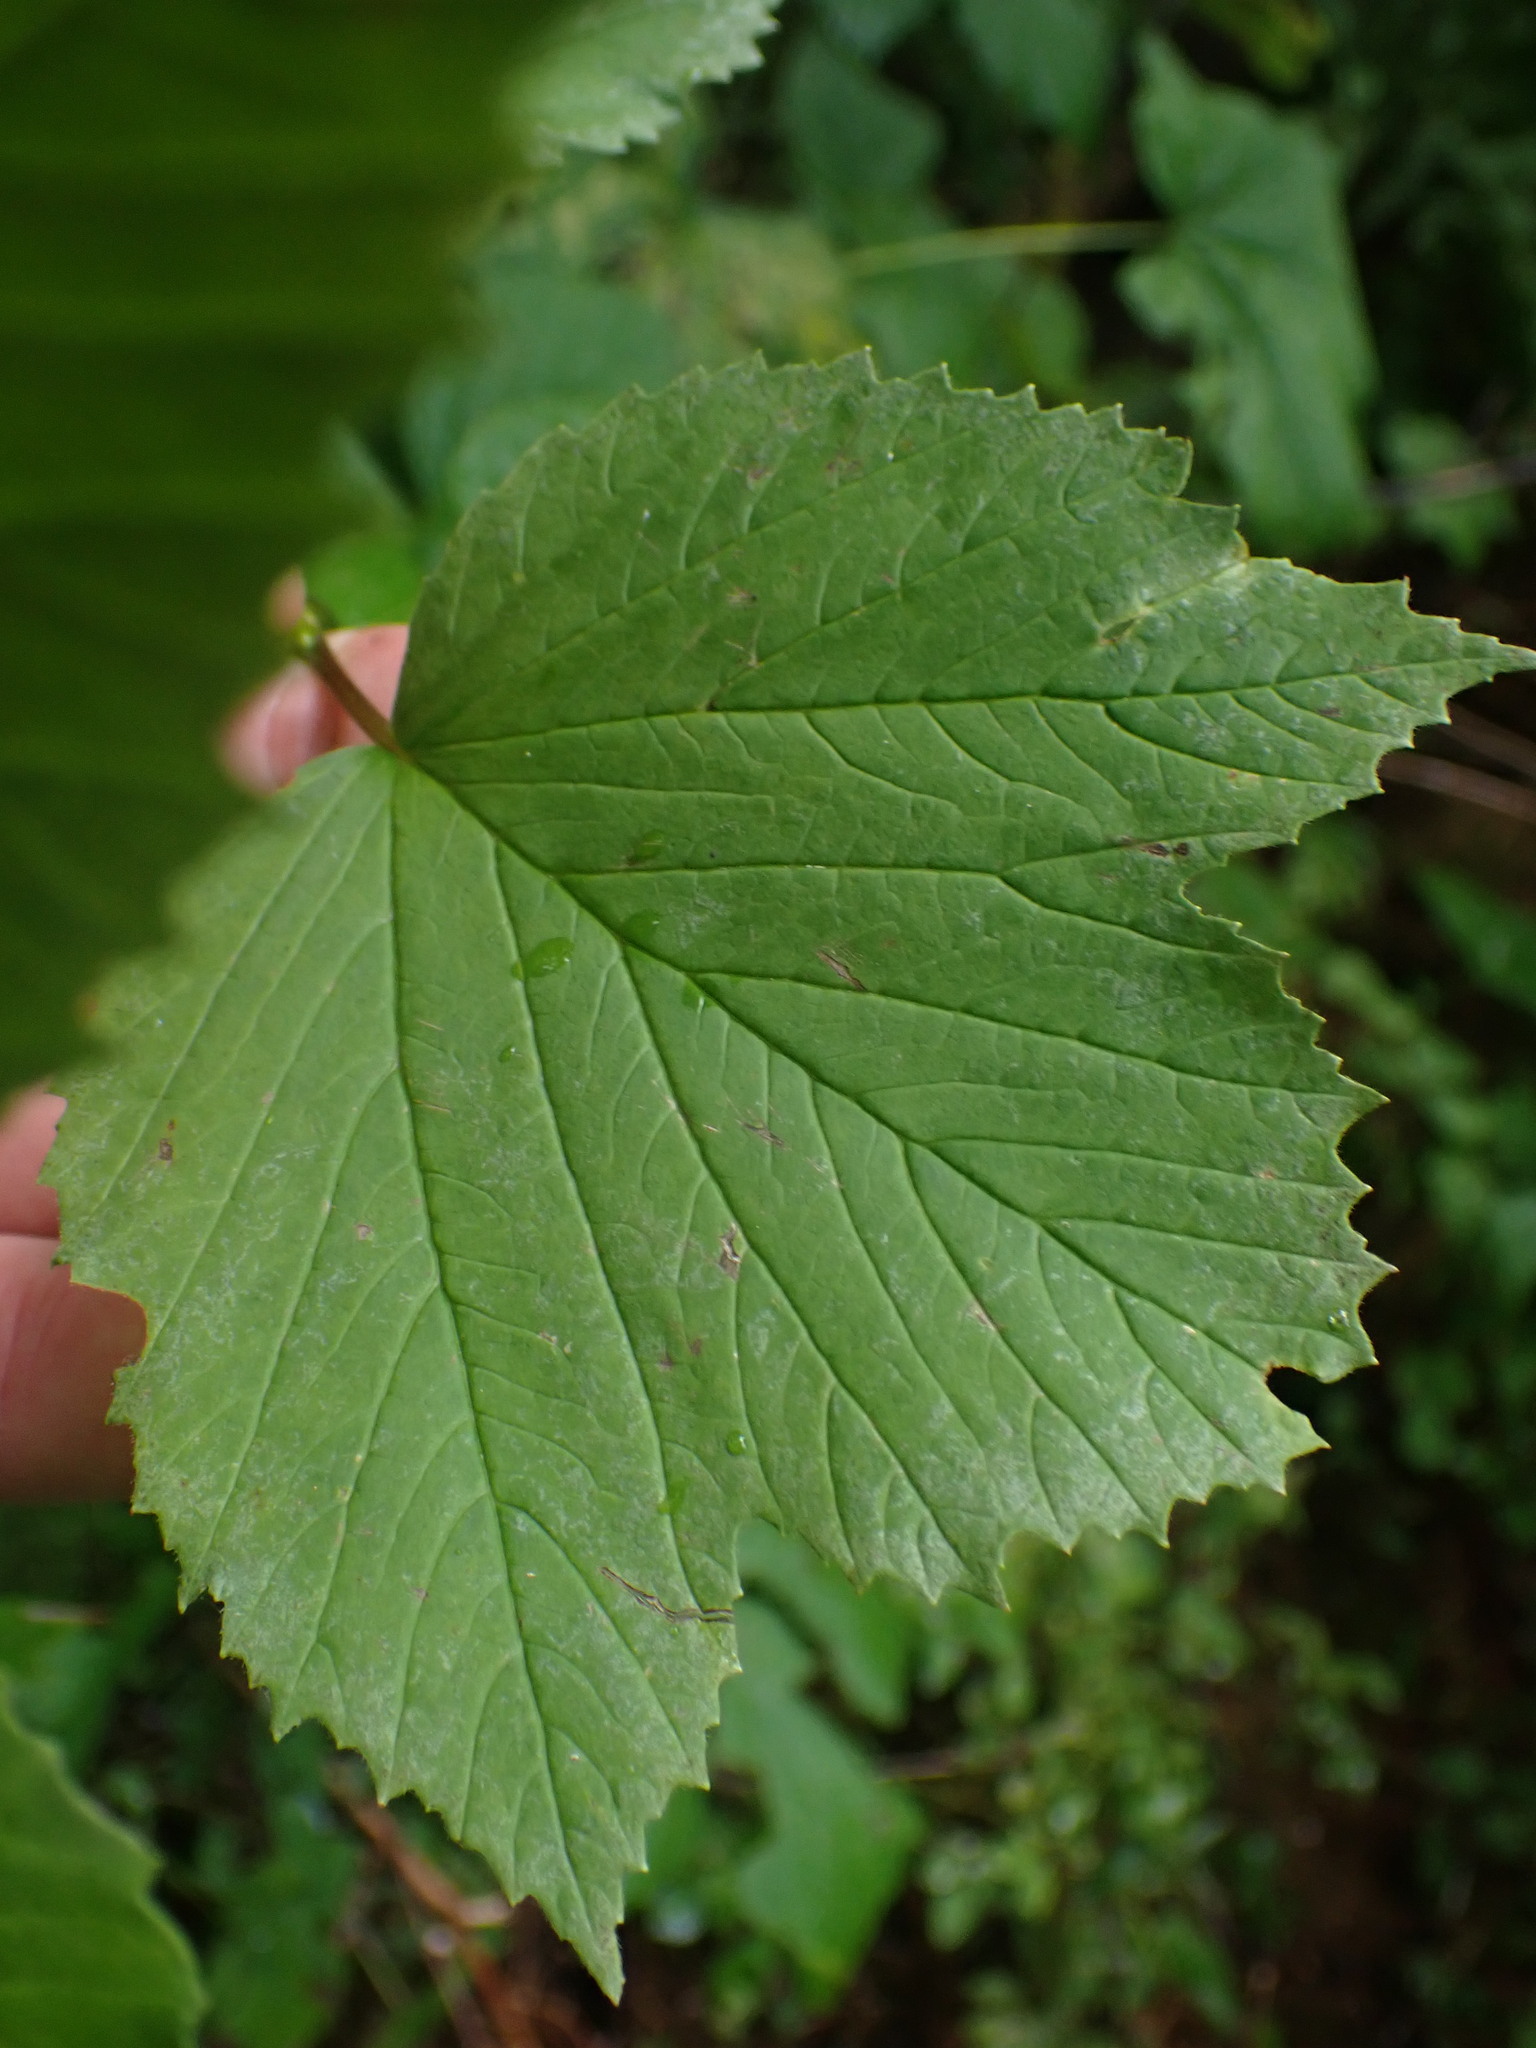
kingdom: Plantae
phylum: Tracheophyta
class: Magnoliopsida
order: Dipsacales
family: Viburnaceae
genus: Viburnum
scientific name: Viburnum edule
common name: Mooseberry
